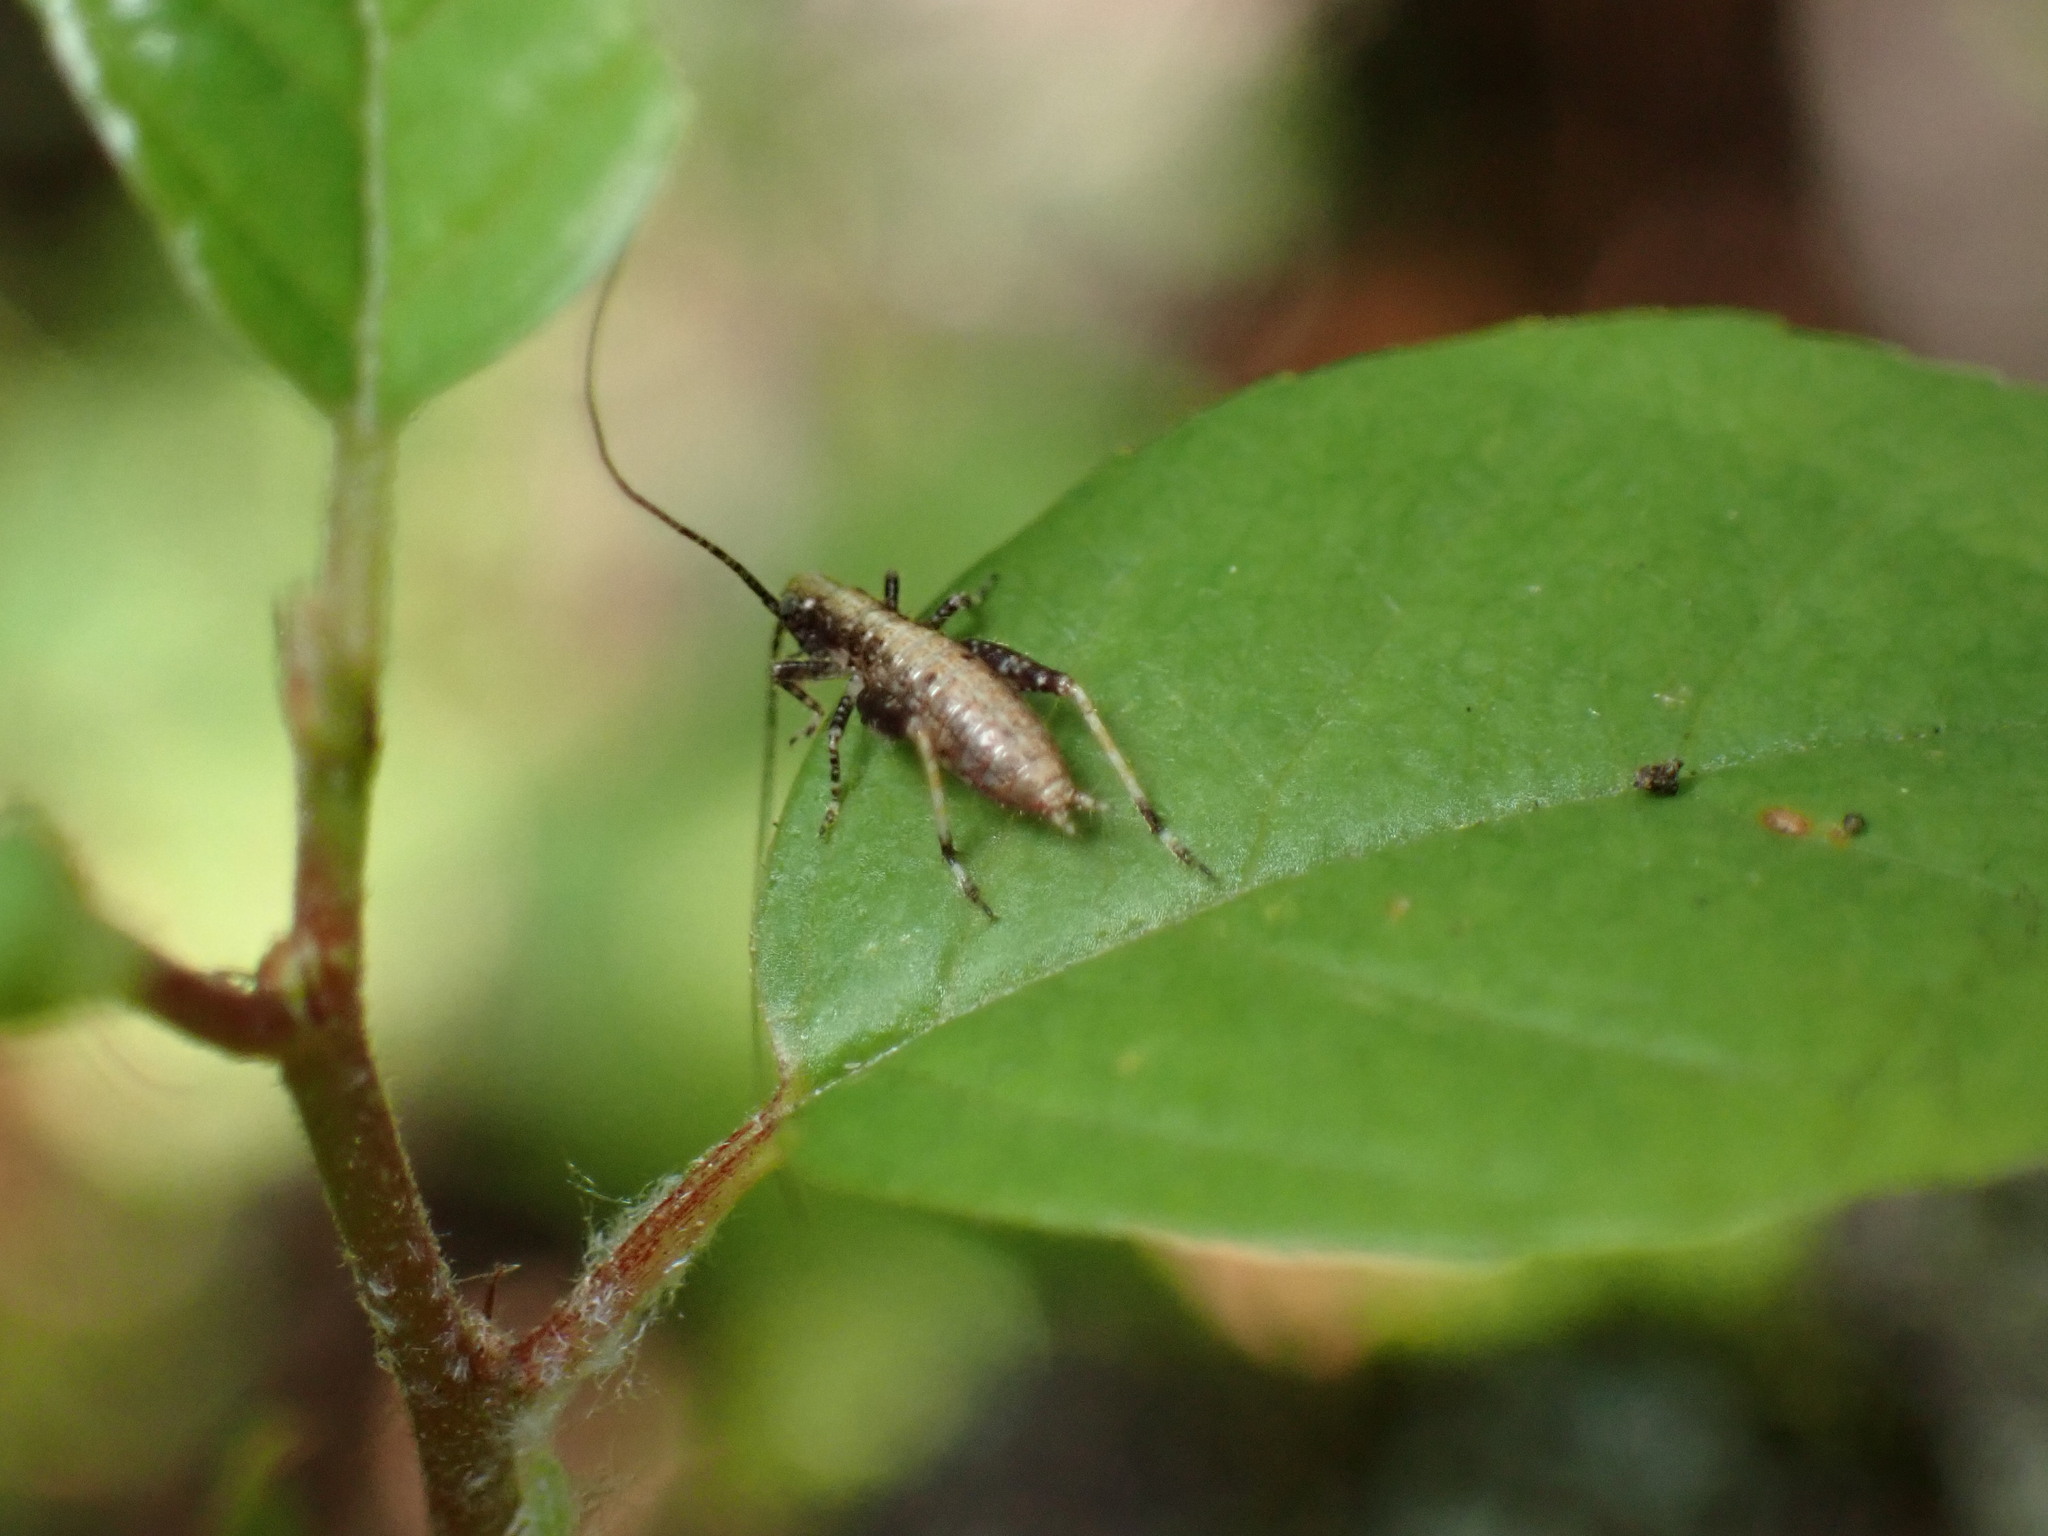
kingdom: Animalia
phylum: Arthropoda
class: Insecta
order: Orthoptera
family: Gryllidae
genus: Hapithus
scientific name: Hapithus saltator
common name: Jumping bush cricket
